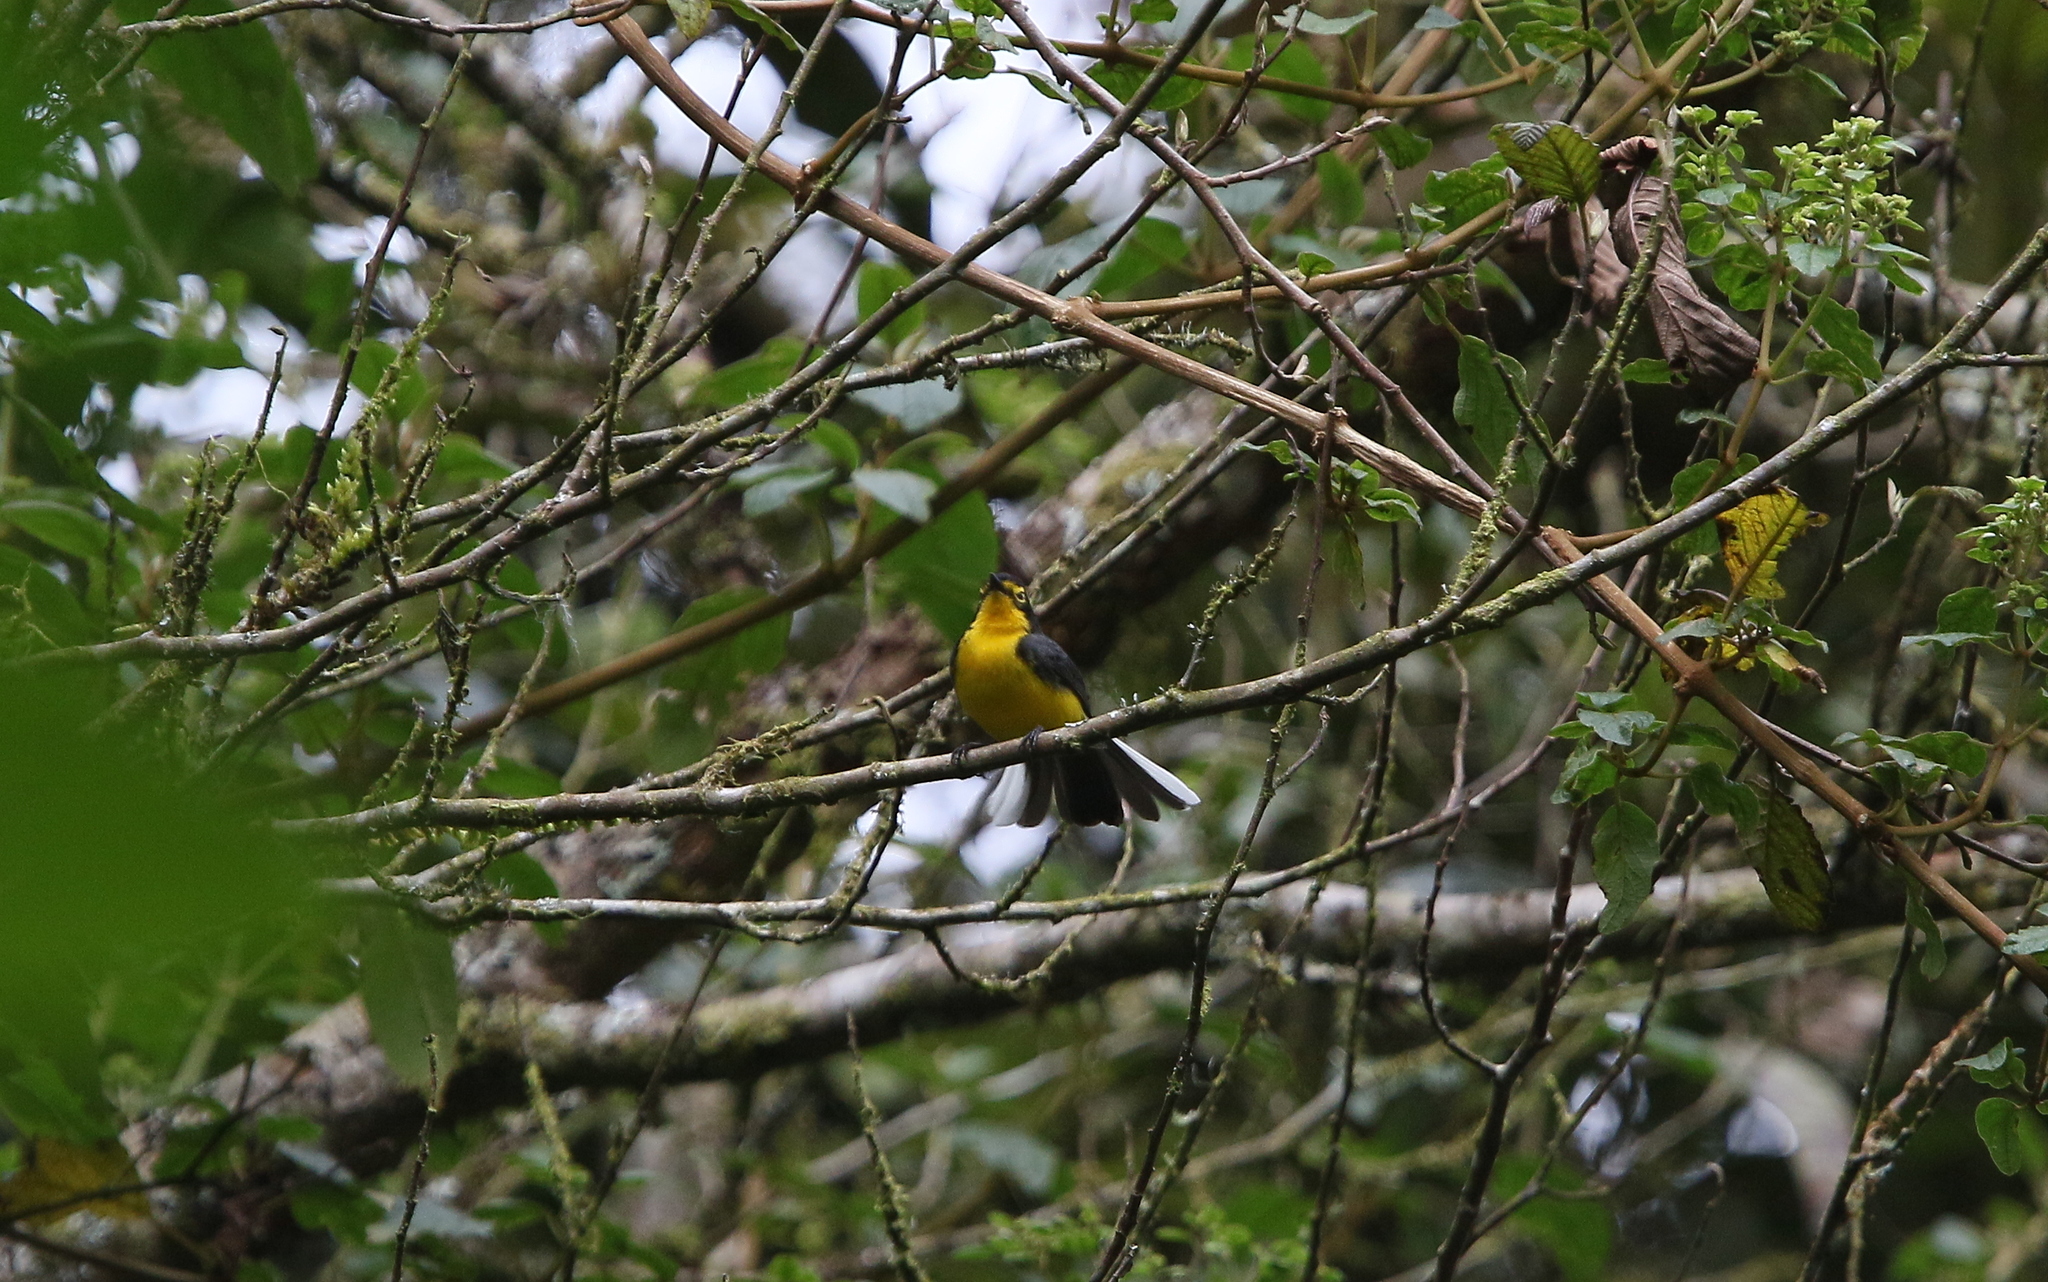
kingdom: Animalia
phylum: Chordata
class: Aves
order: Passeriformes
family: Parulidae
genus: Myioborus
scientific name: Myioborus melanocephalus
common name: Spectacled whitestart
